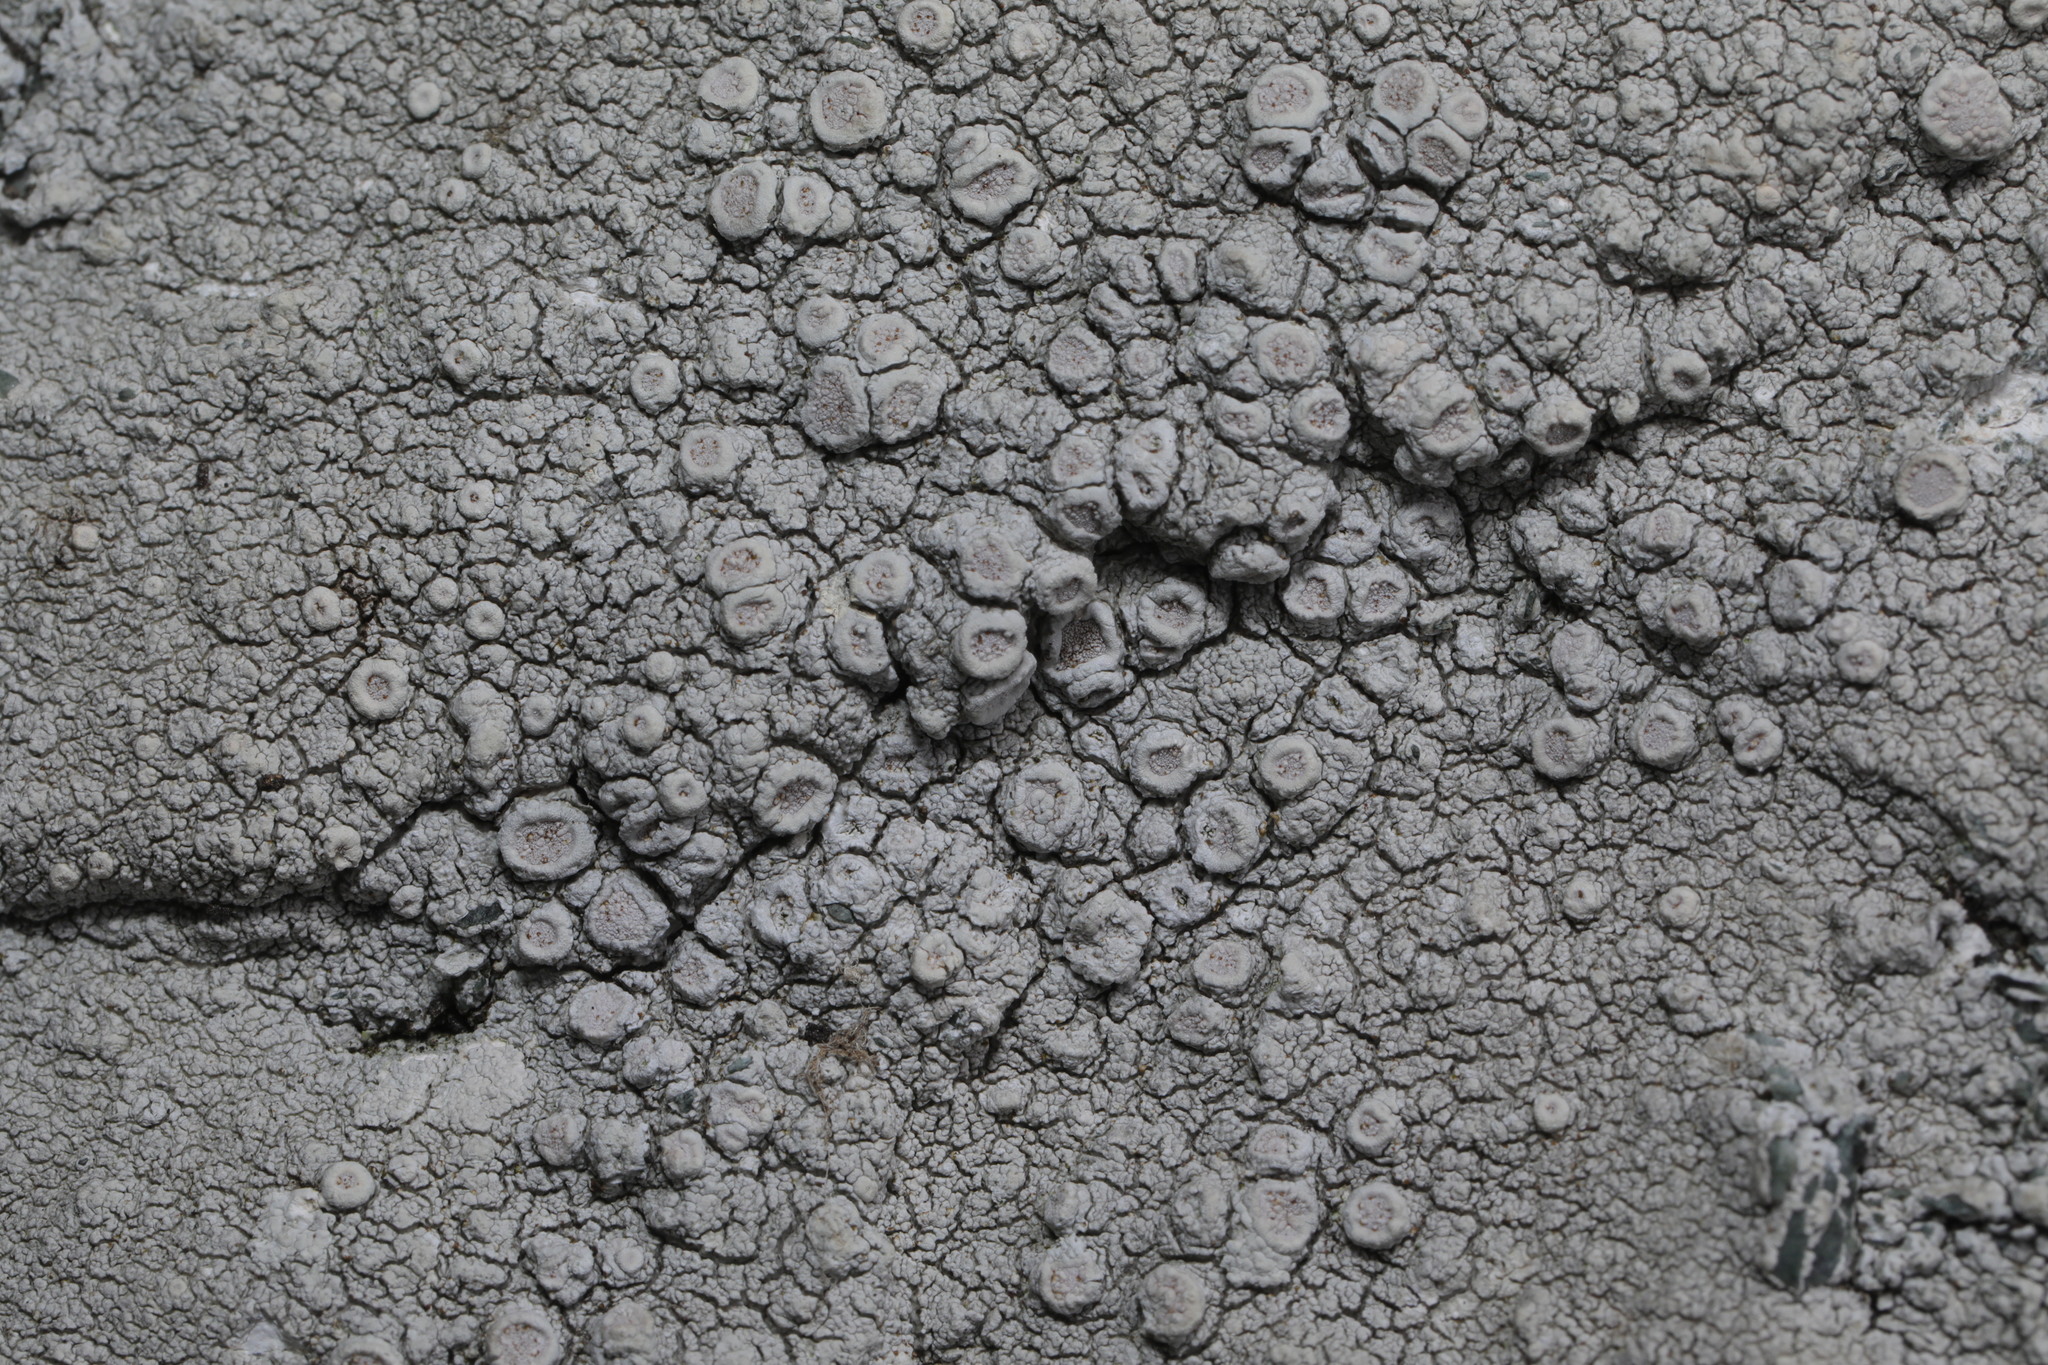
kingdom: Fungi
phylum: Ascomycota
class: Lecanoromycetes
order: Pertusariales
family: Ochrolechiaceae
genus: Ochrolechia
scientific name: Ochrolechia parella
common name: Crab's eye lichen
